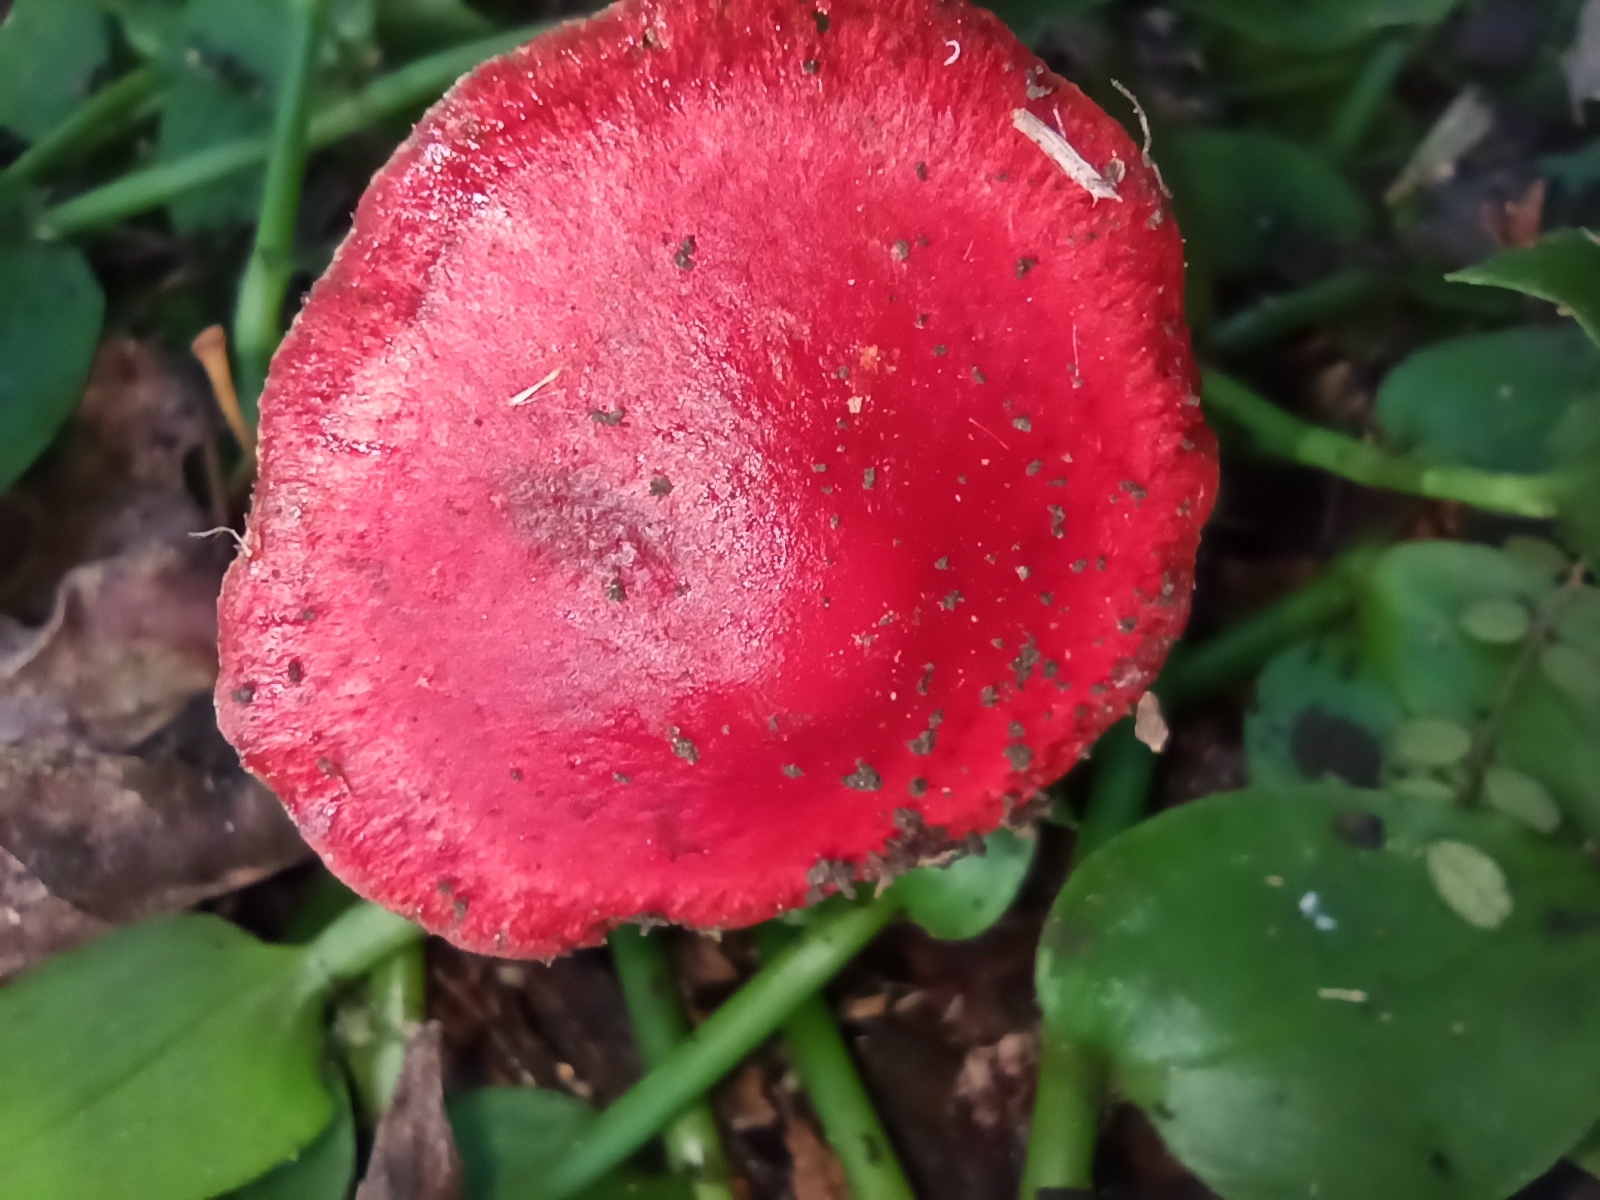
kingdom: Fungi
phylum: Basidiomycota
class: Agaricomycetes
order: Agaricales
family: Strophariaceae
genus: Leratiomyces
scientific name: Leratiomyces ceres
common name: Redlead roundhead
